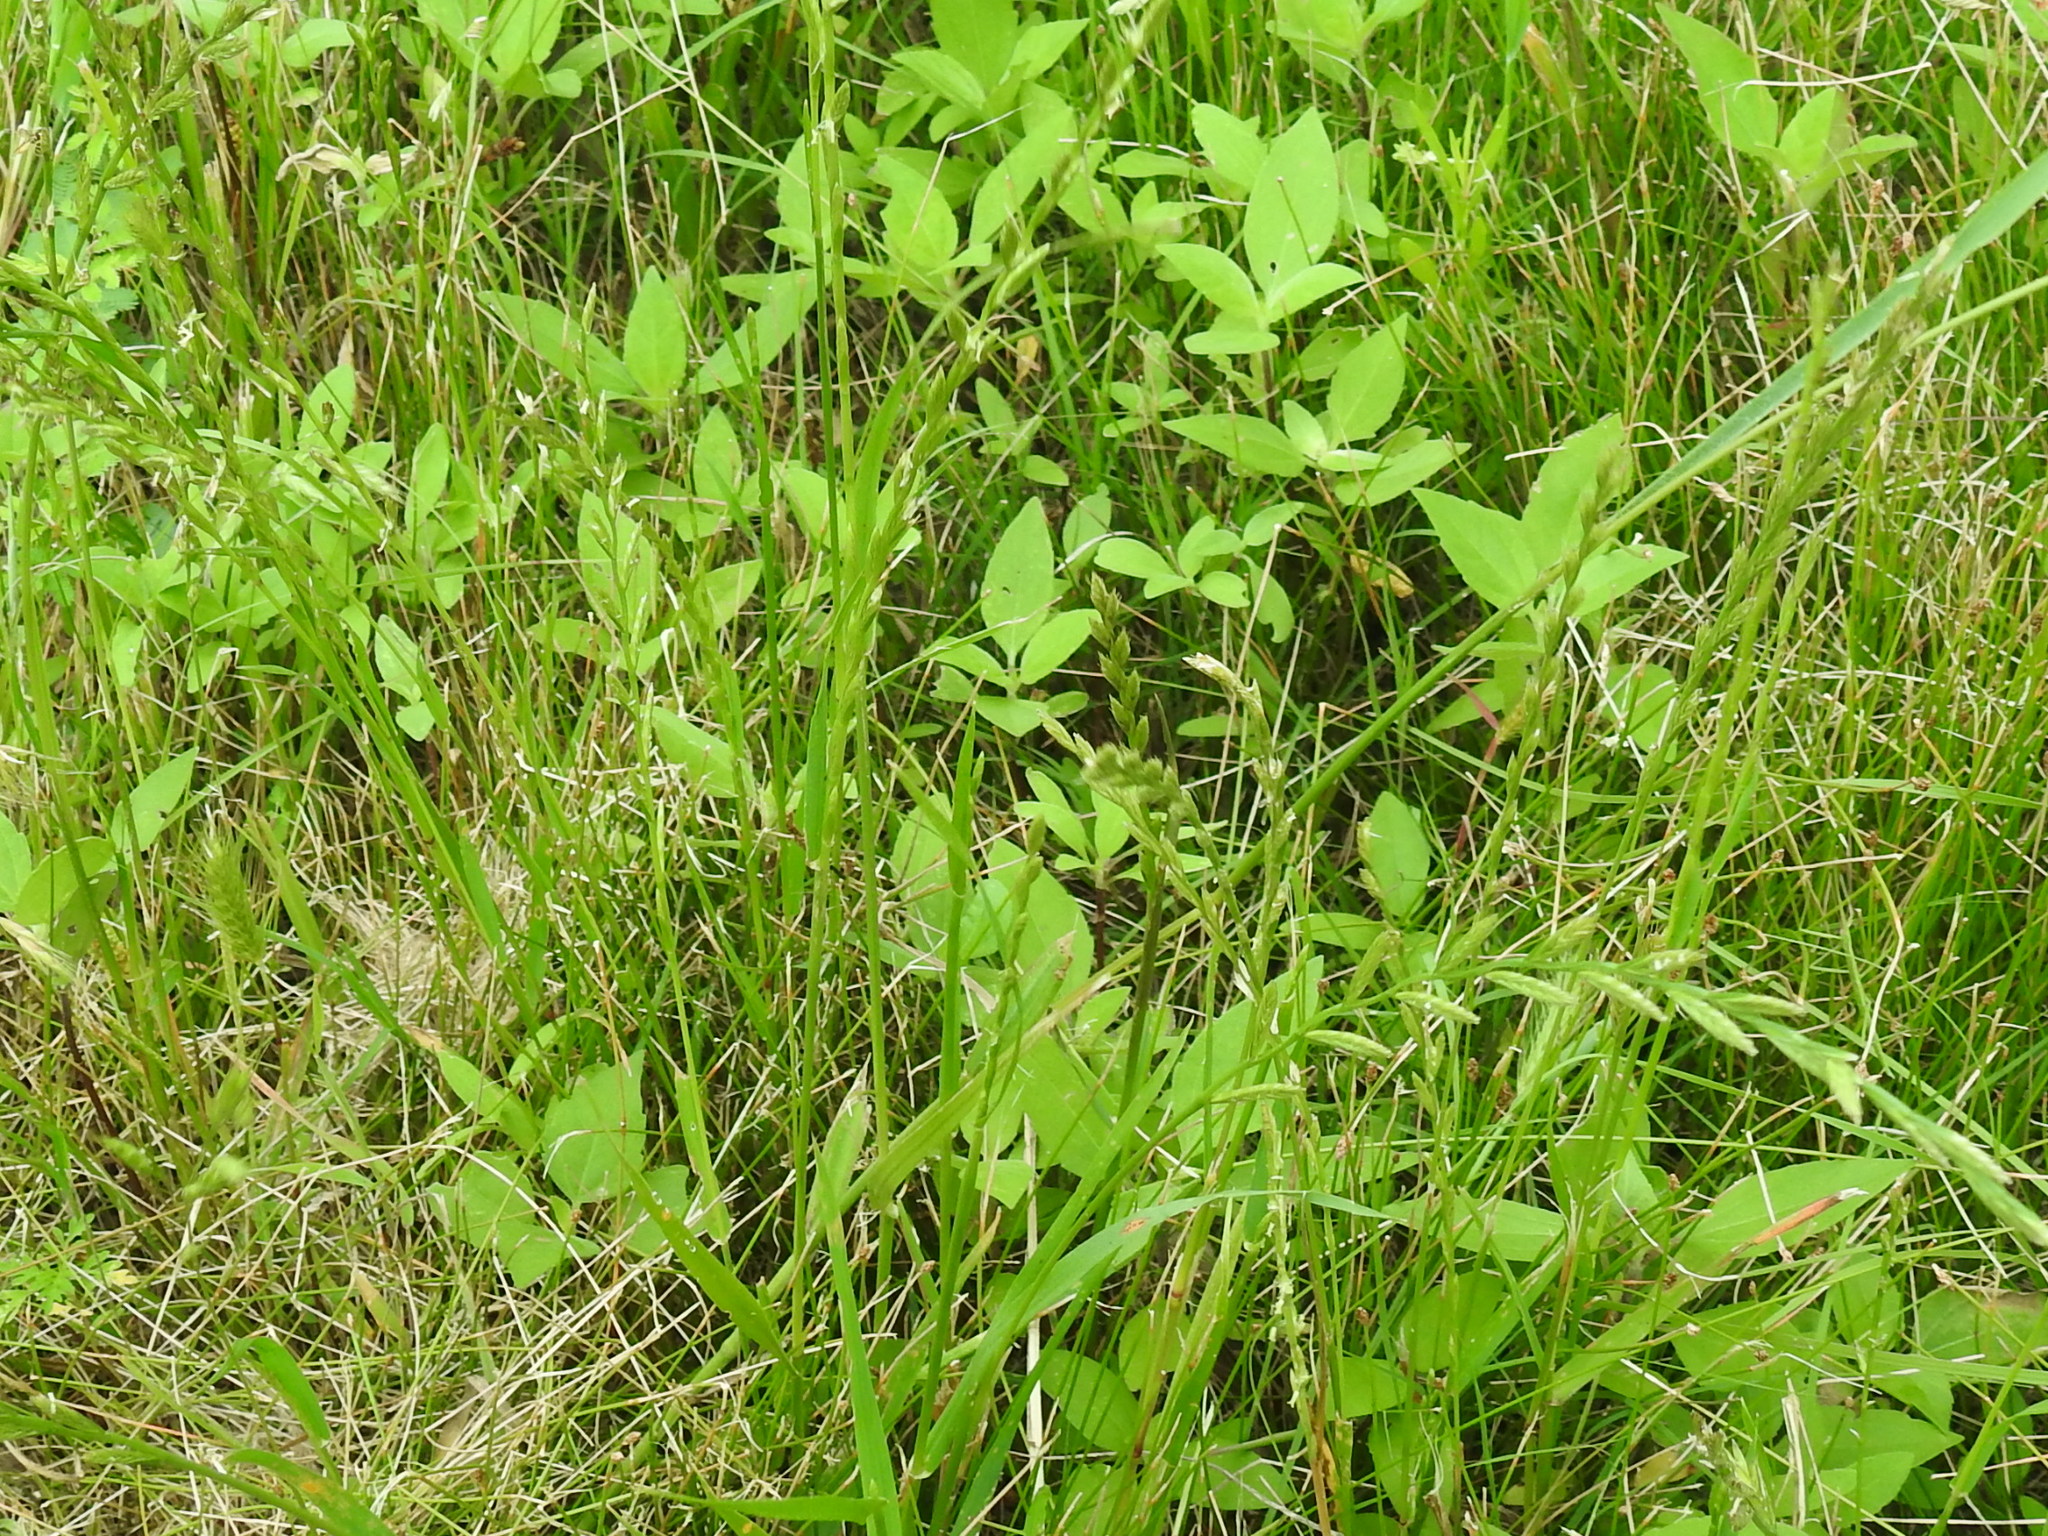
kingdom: Plantae
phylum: Tracheophyta
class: Liliopsida
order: Poales
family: Poaceae
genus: Lolium
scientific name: Lolium perenne
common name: Perennial ryegrass
